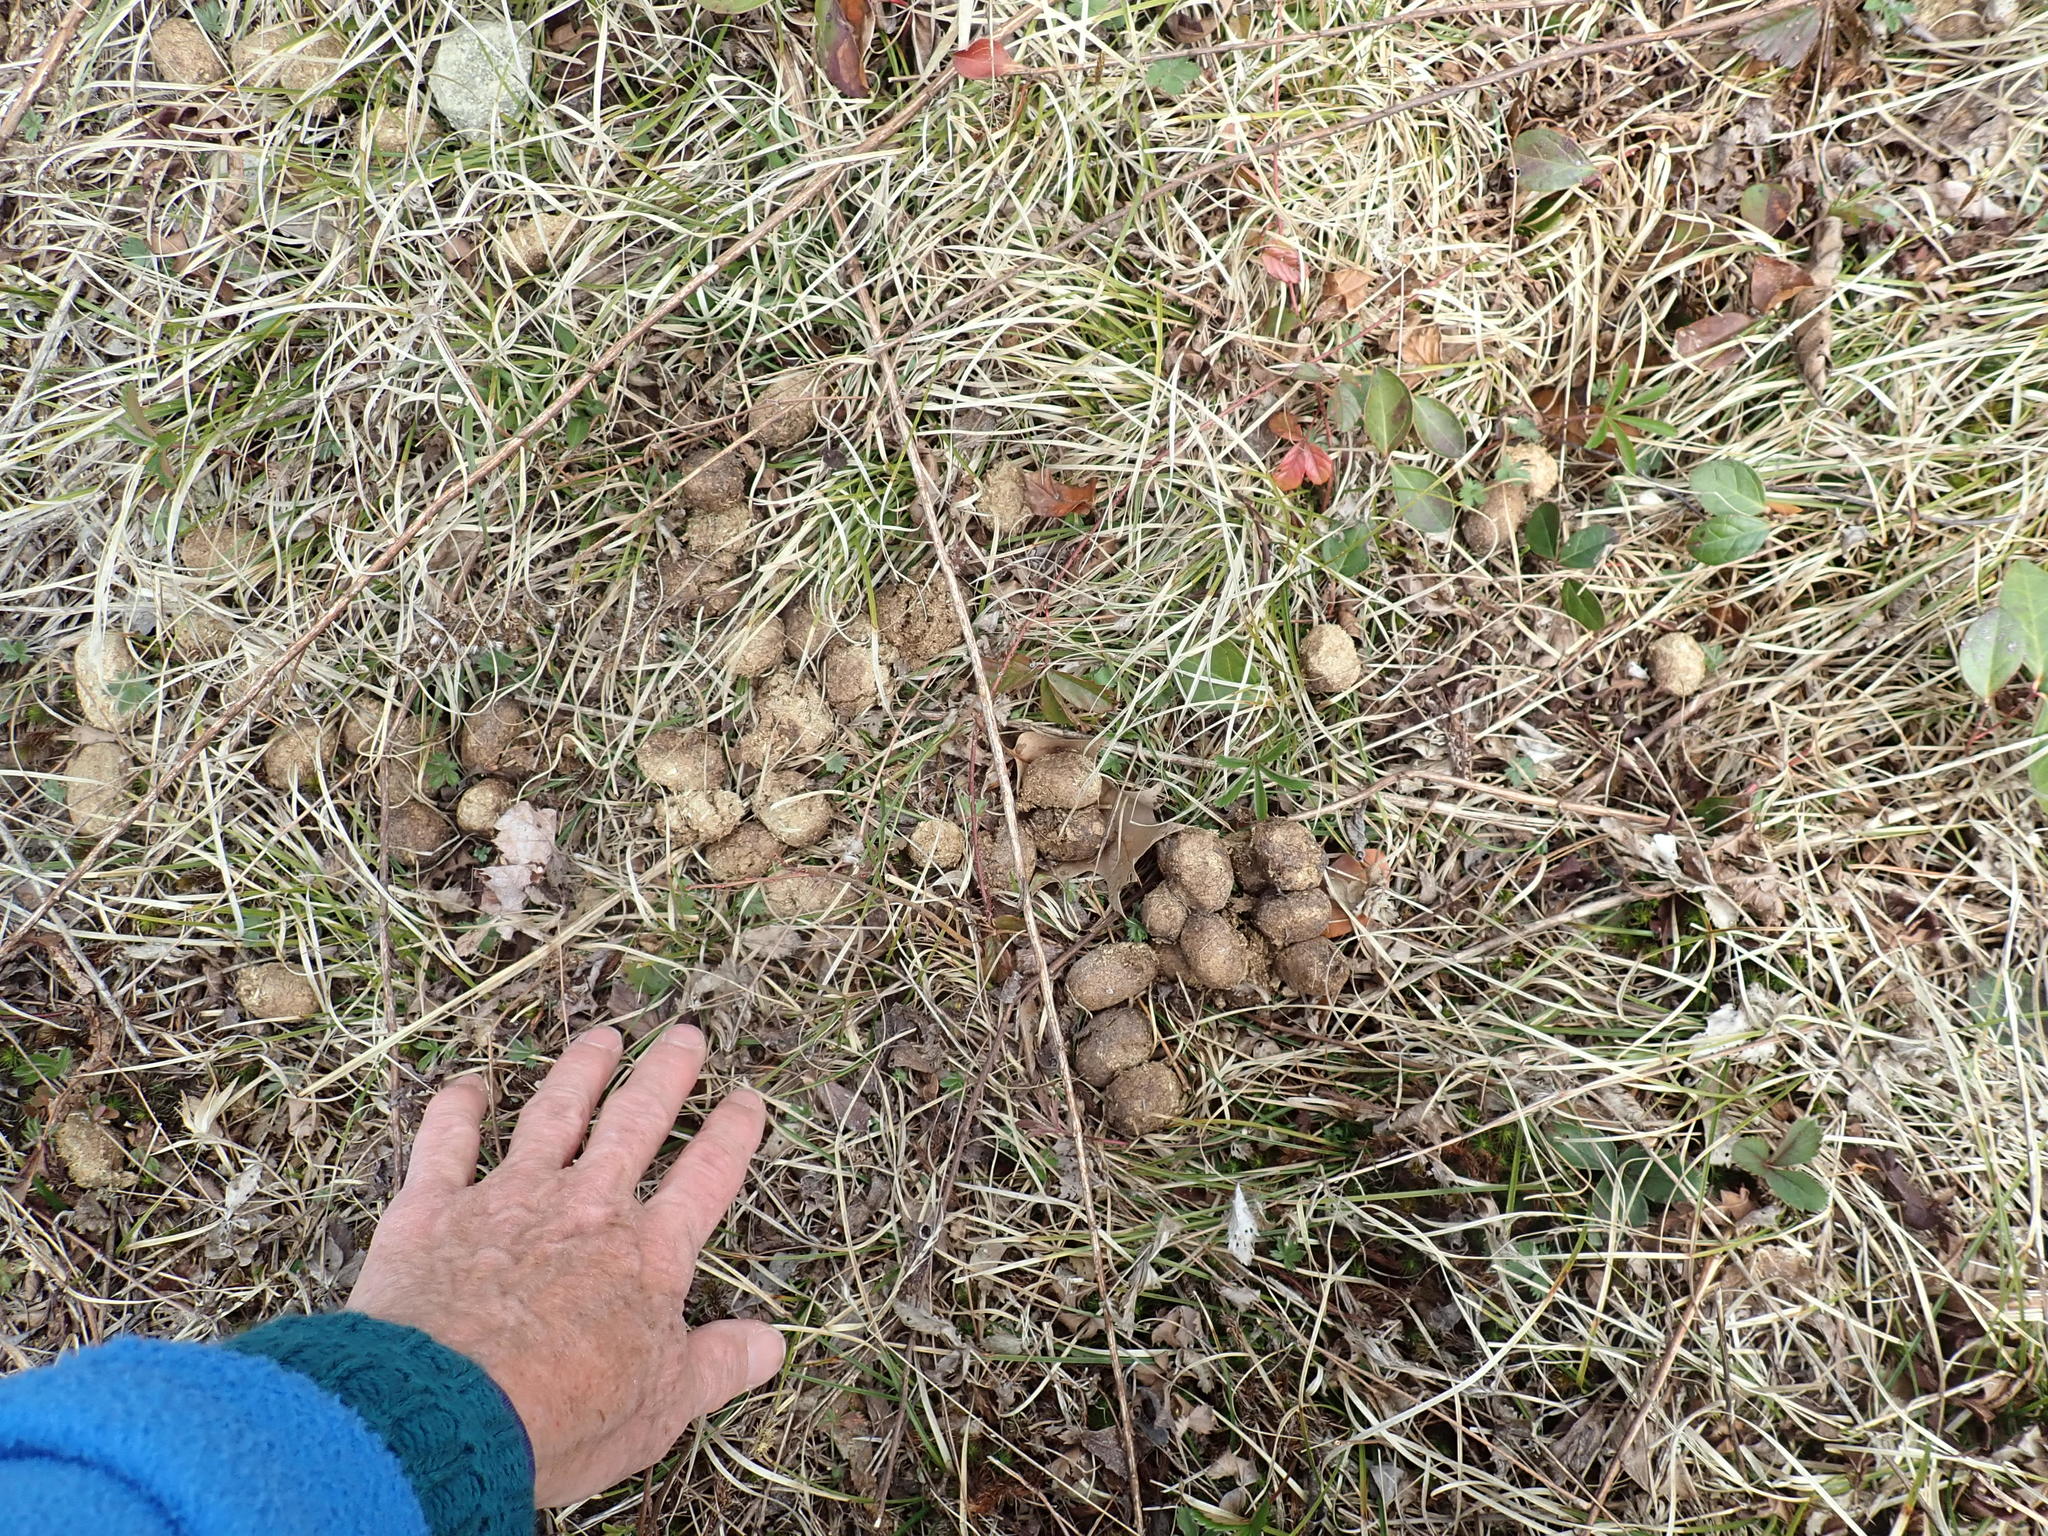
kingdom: Animalia
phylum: Chordata
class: Mammalia
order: Artiodactyla
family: Cervidae
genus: Alces
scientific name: Alces alces
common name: Moose
